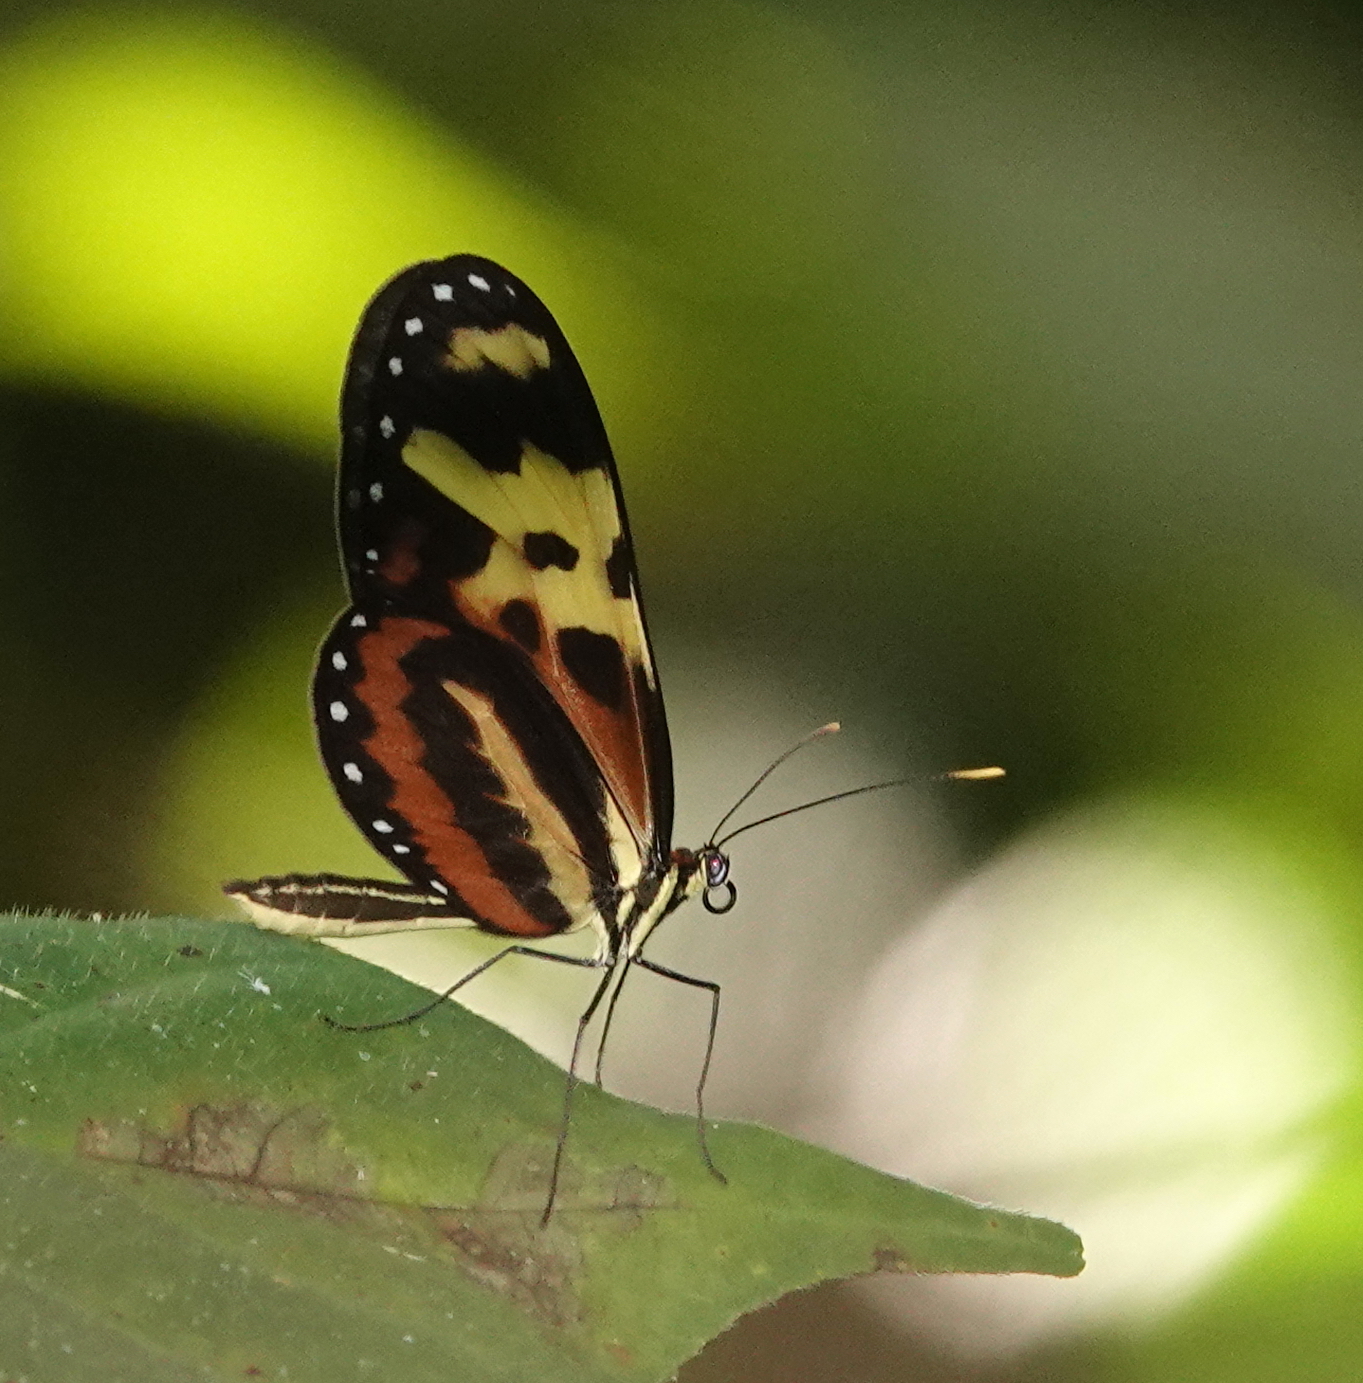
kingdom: Animalia
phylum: Arthropoda
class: Insecta
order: Lepidoptera
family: Nymphalidae
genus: Mechanitis
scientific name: Mechanitis polymnia
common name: Disturbed tigerwing
